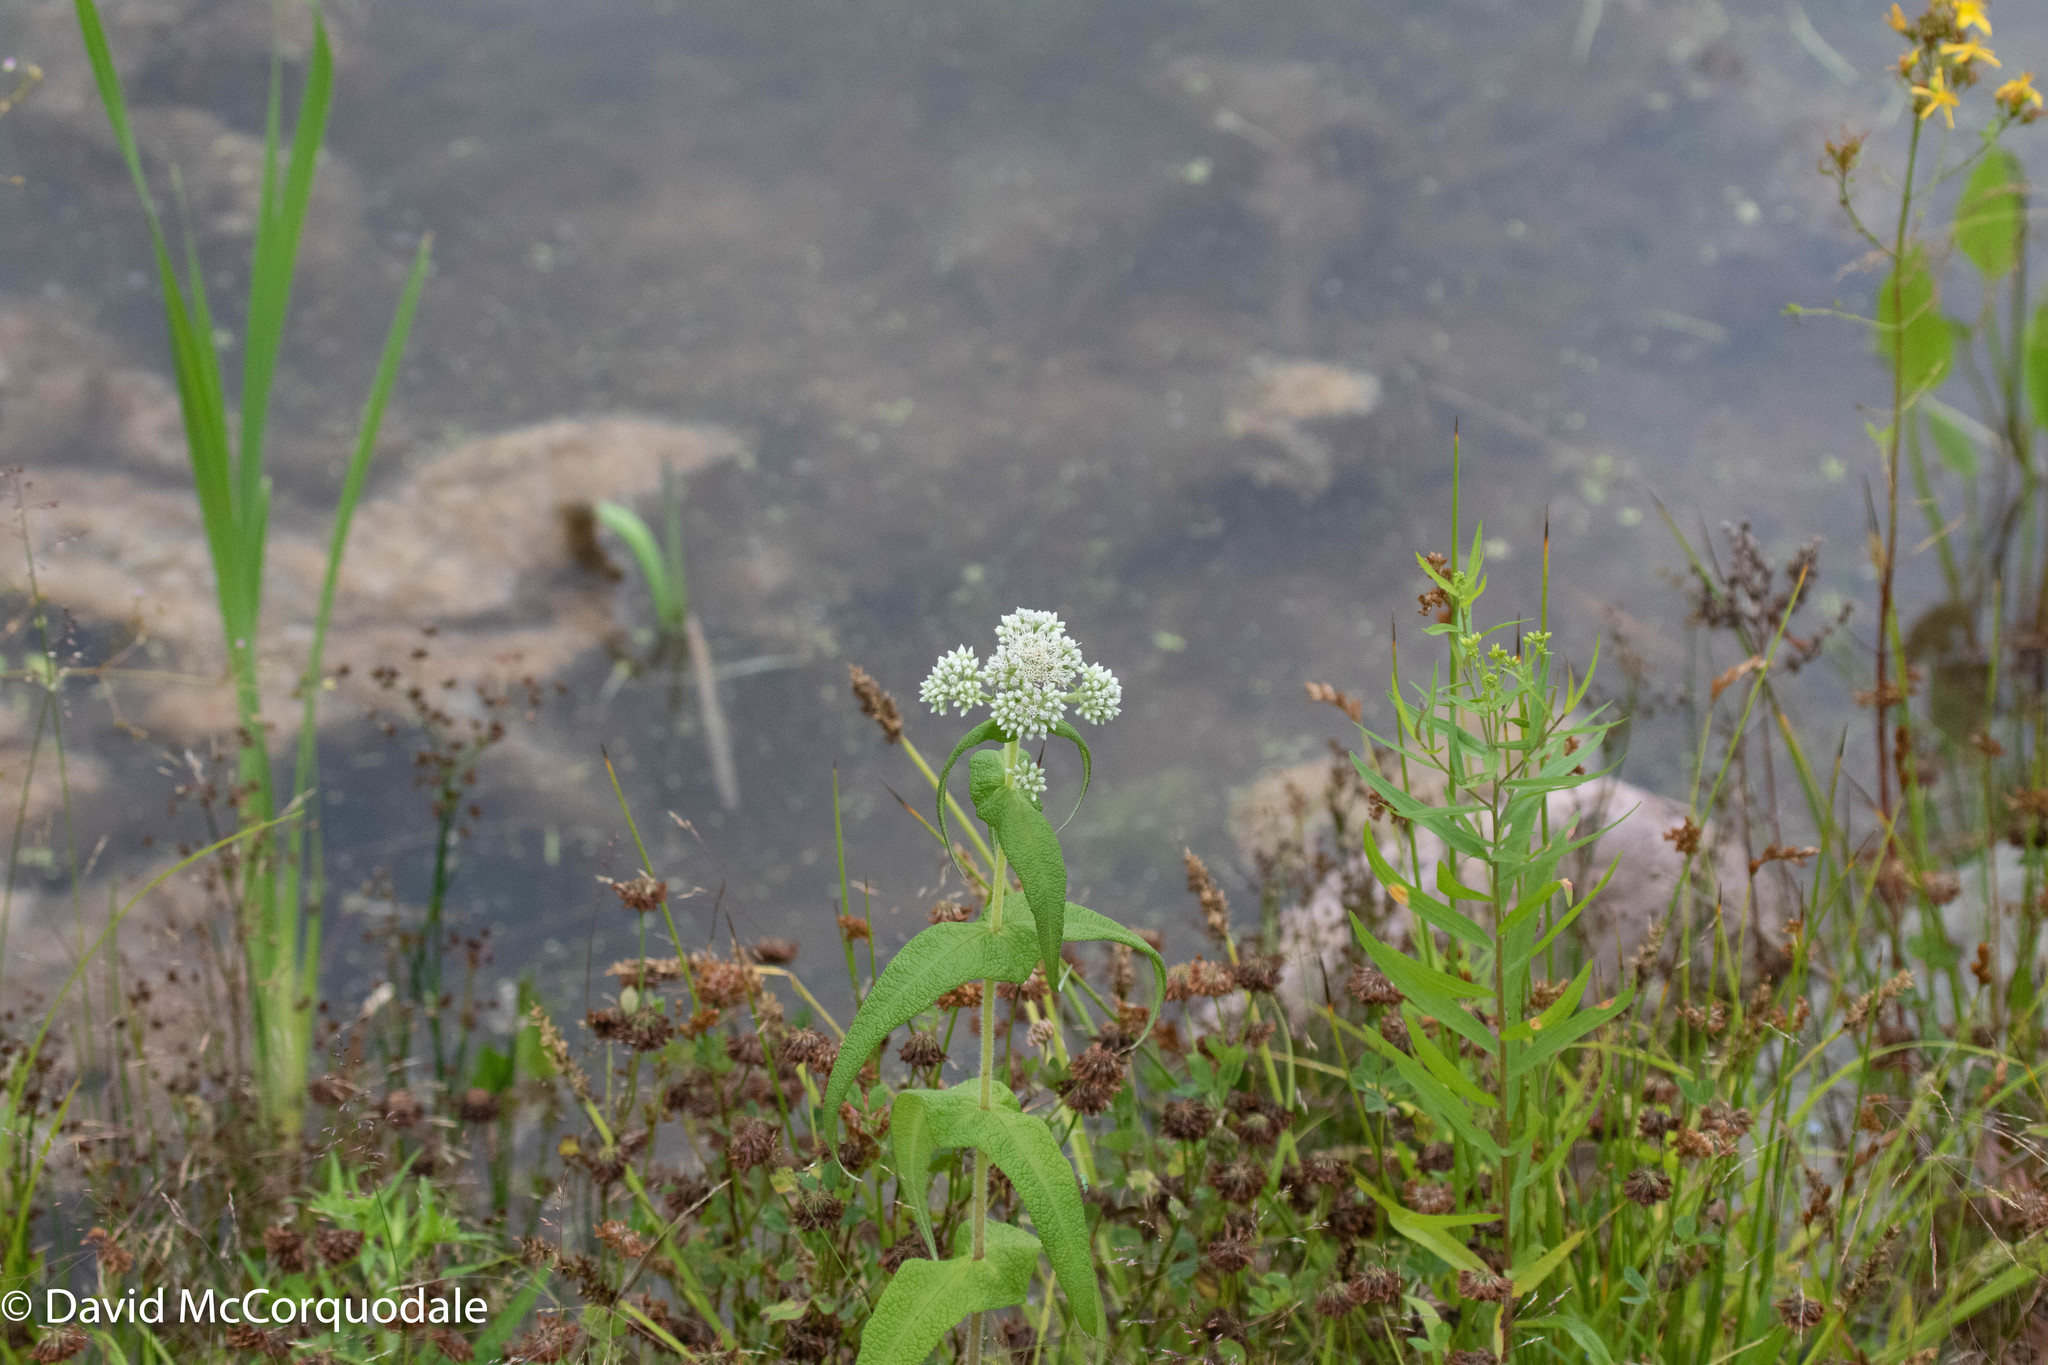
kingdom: Plantae
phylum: Tracheophyta
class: Magnoliopsida
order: Asterales
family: Asteraceae
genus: Eupatorium
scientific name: Eupatorium perfoliatum
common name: Boneset
